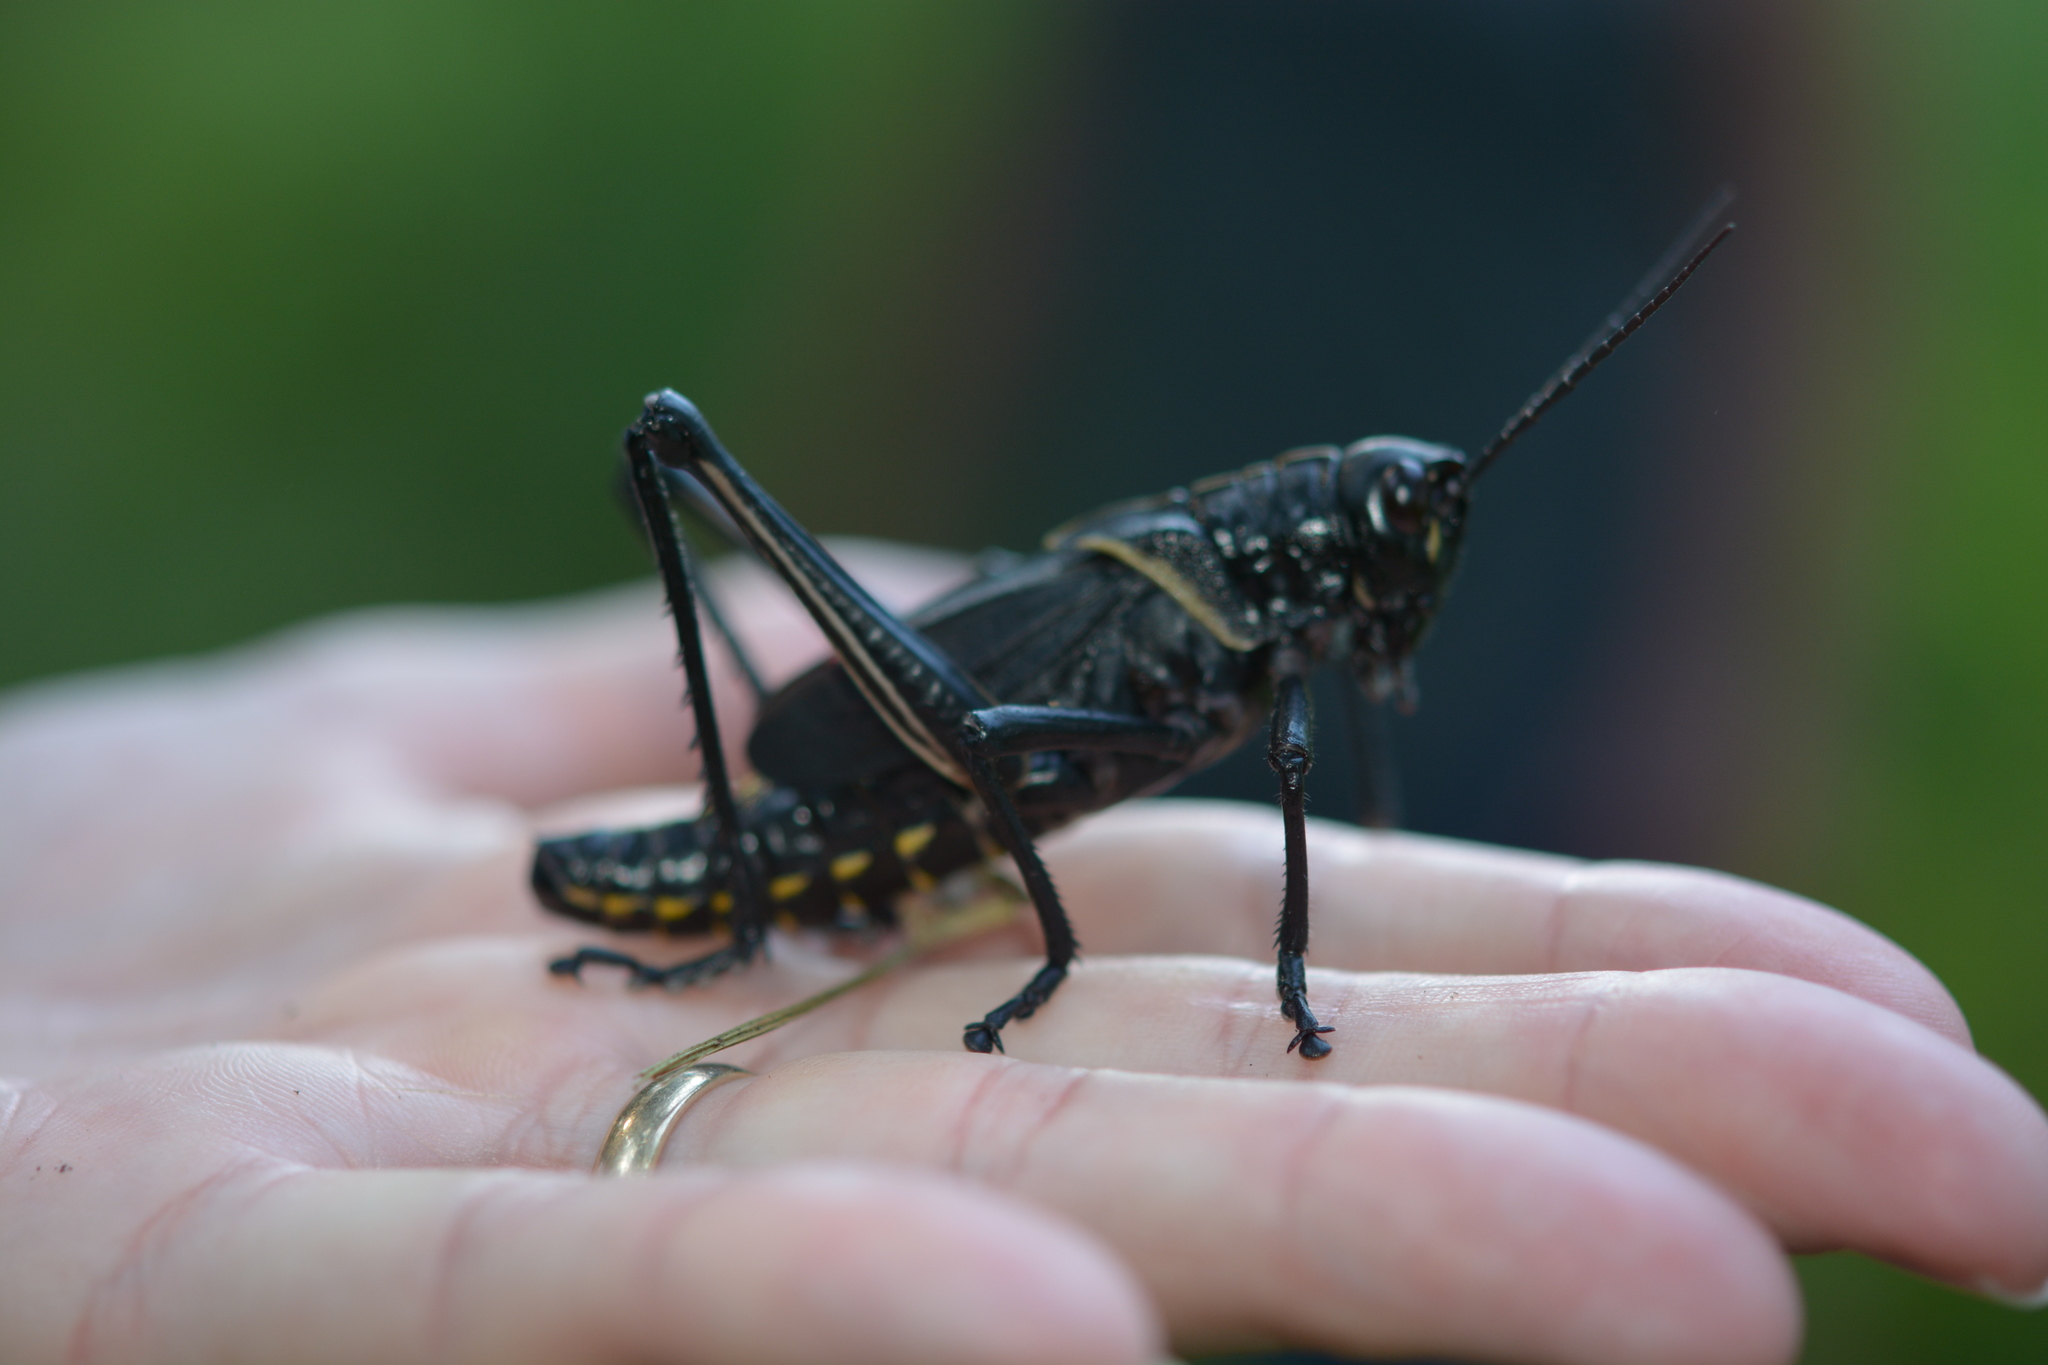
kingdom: Animalia
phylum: Arthropoda
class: Insecta
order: Orthoptera
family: Romaleidae
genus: Romalea
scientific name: Romalea microptera
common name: Eastern lubber grasshopper
